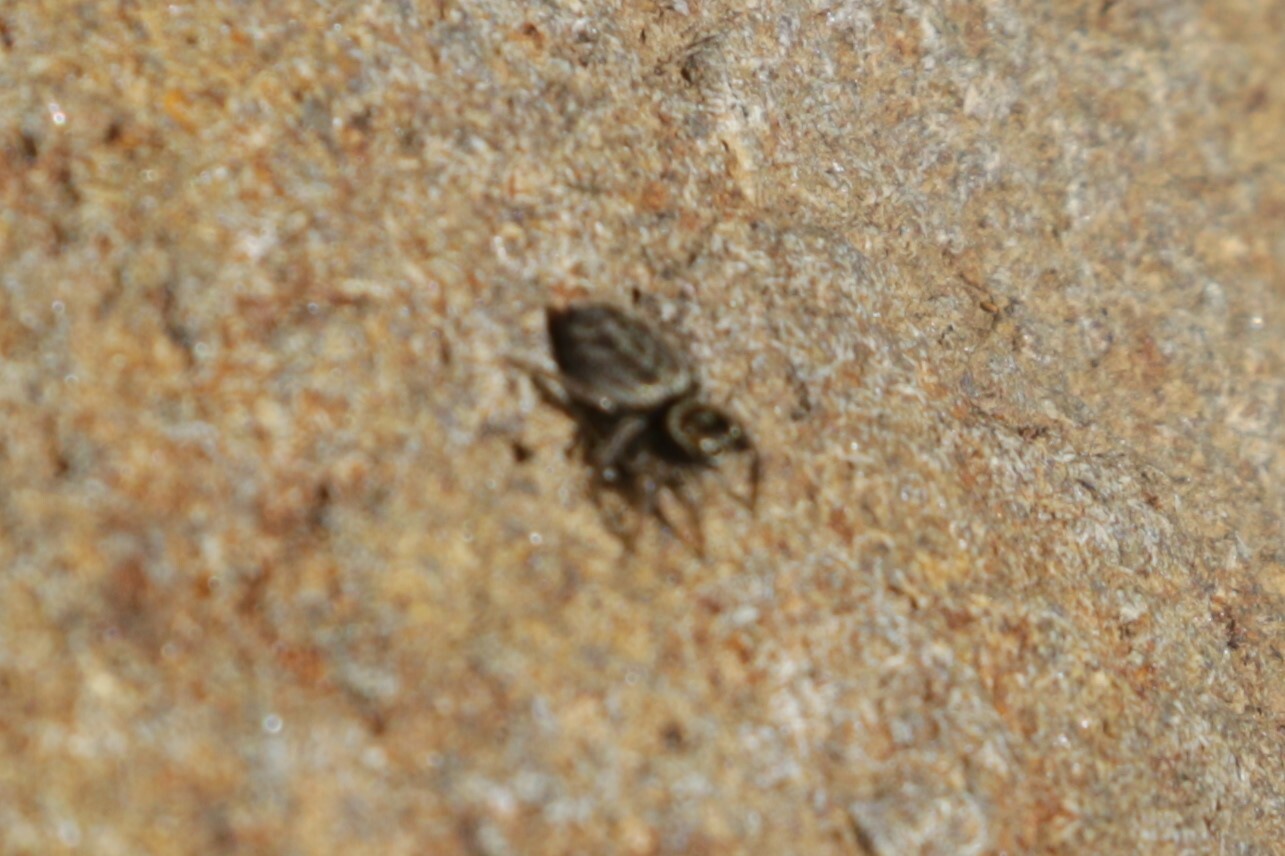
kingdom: Animalia
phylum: Arthropoda
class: Arachnida
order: Araneae
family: Salticidae
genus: Maratus
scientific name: Maratus griseus
